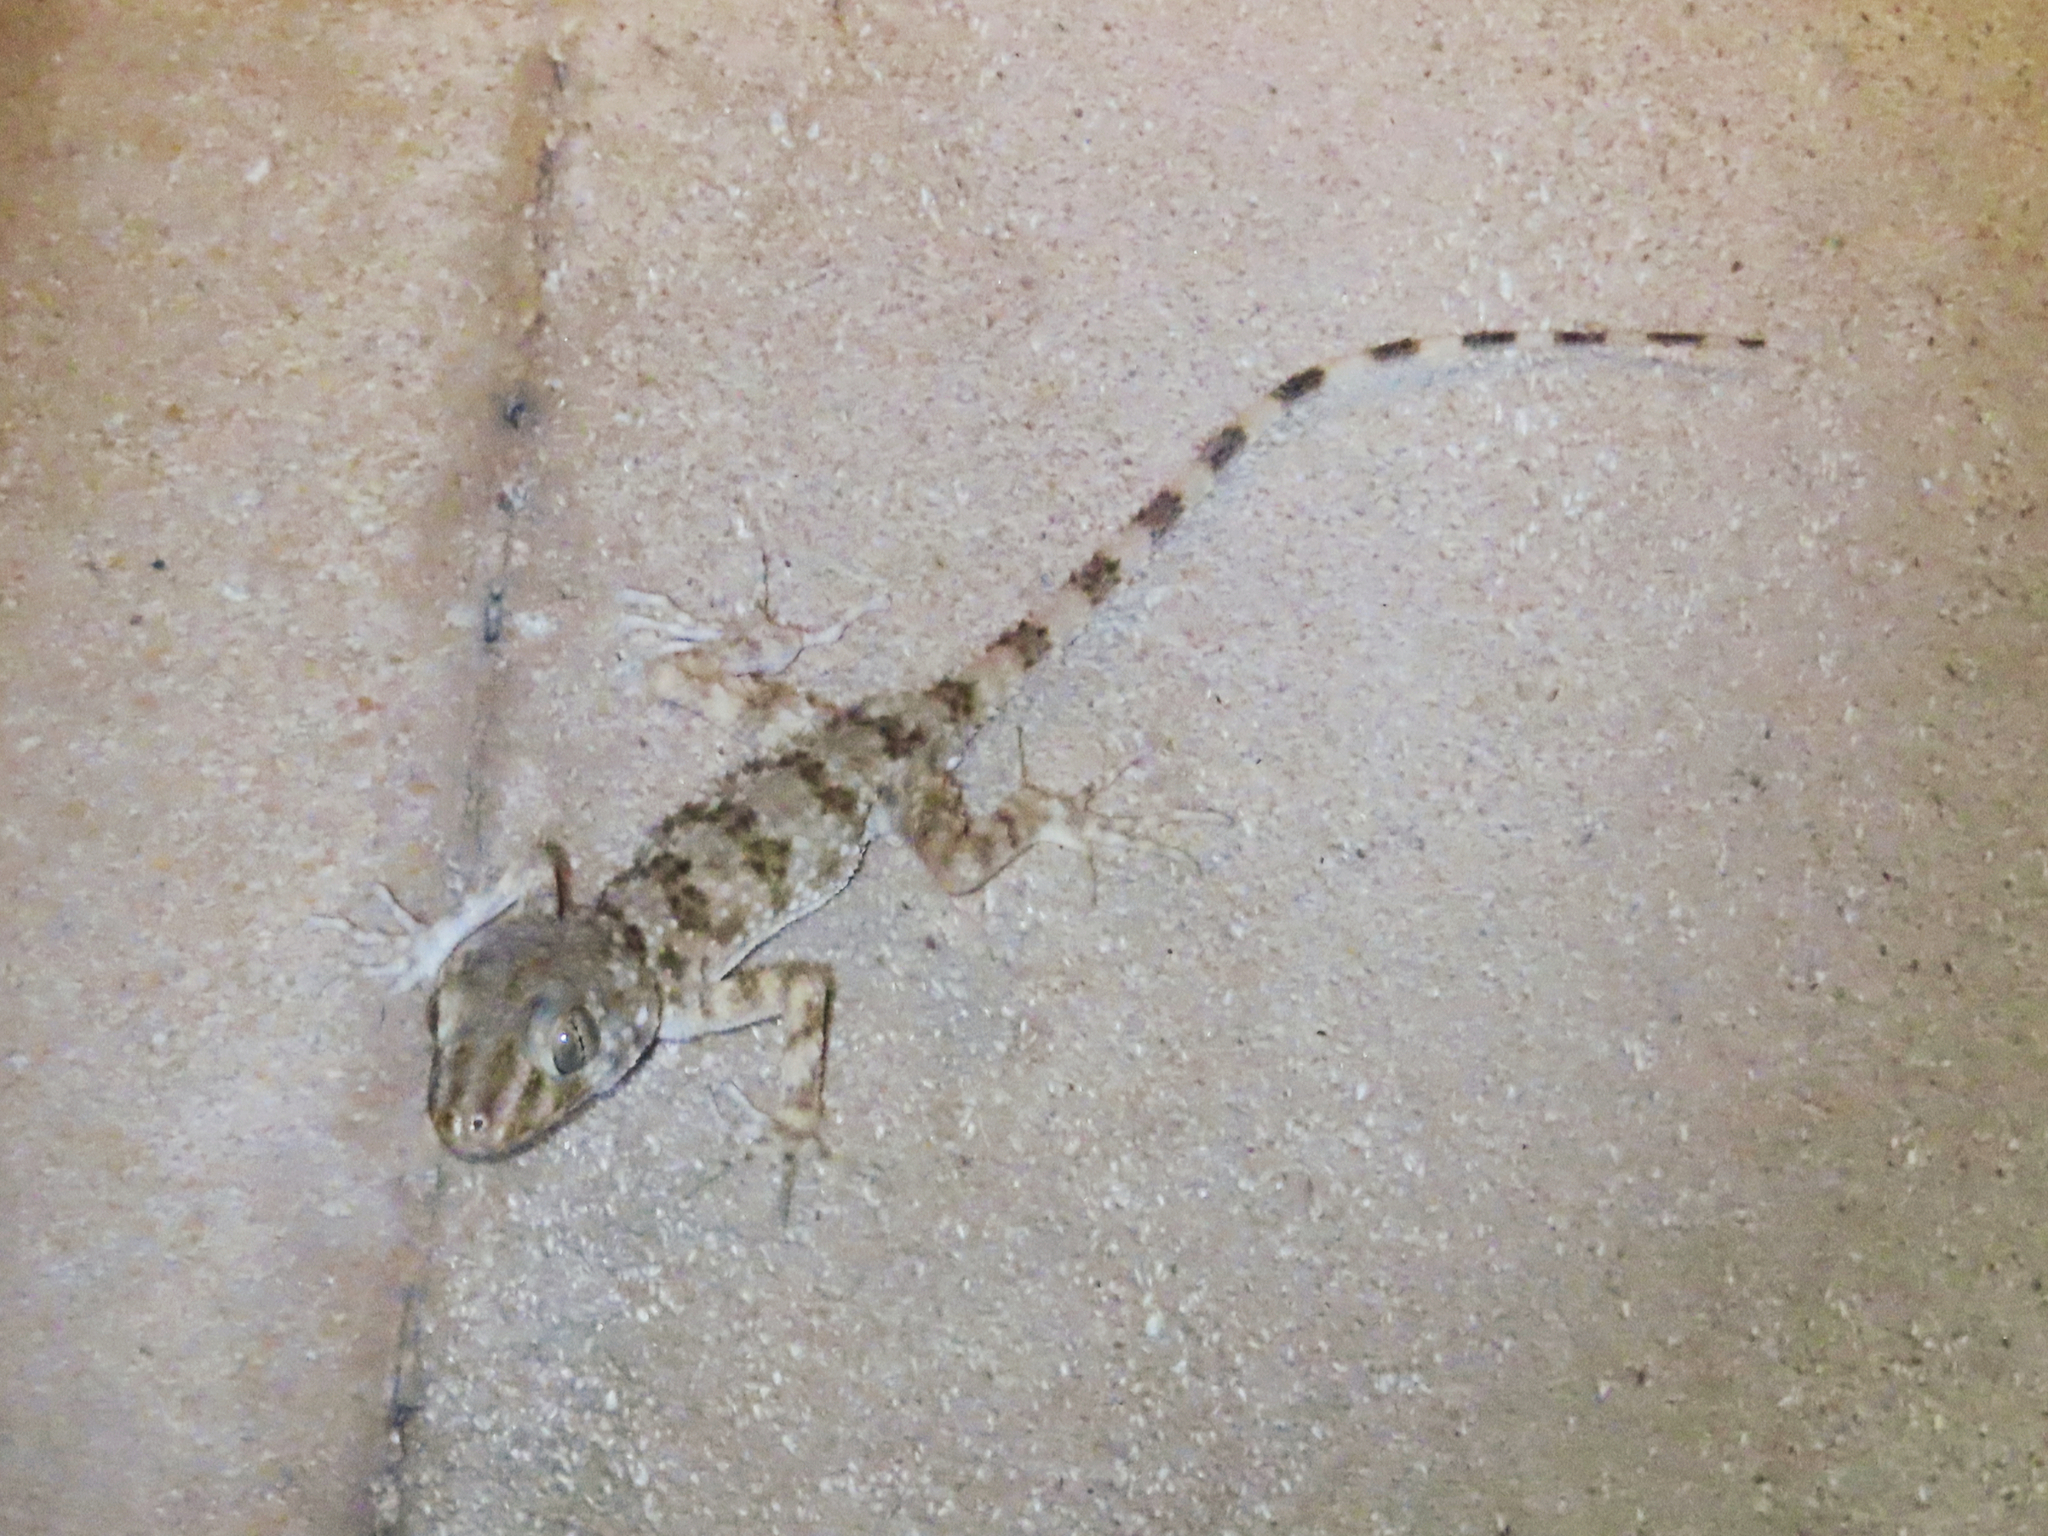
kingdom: Animalia
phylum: Chordata
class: Squamata
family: Gekkonidae
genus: Tenuidactylus
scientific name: Tenuidactylus caspius
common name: Caspian bent-toed gecko
